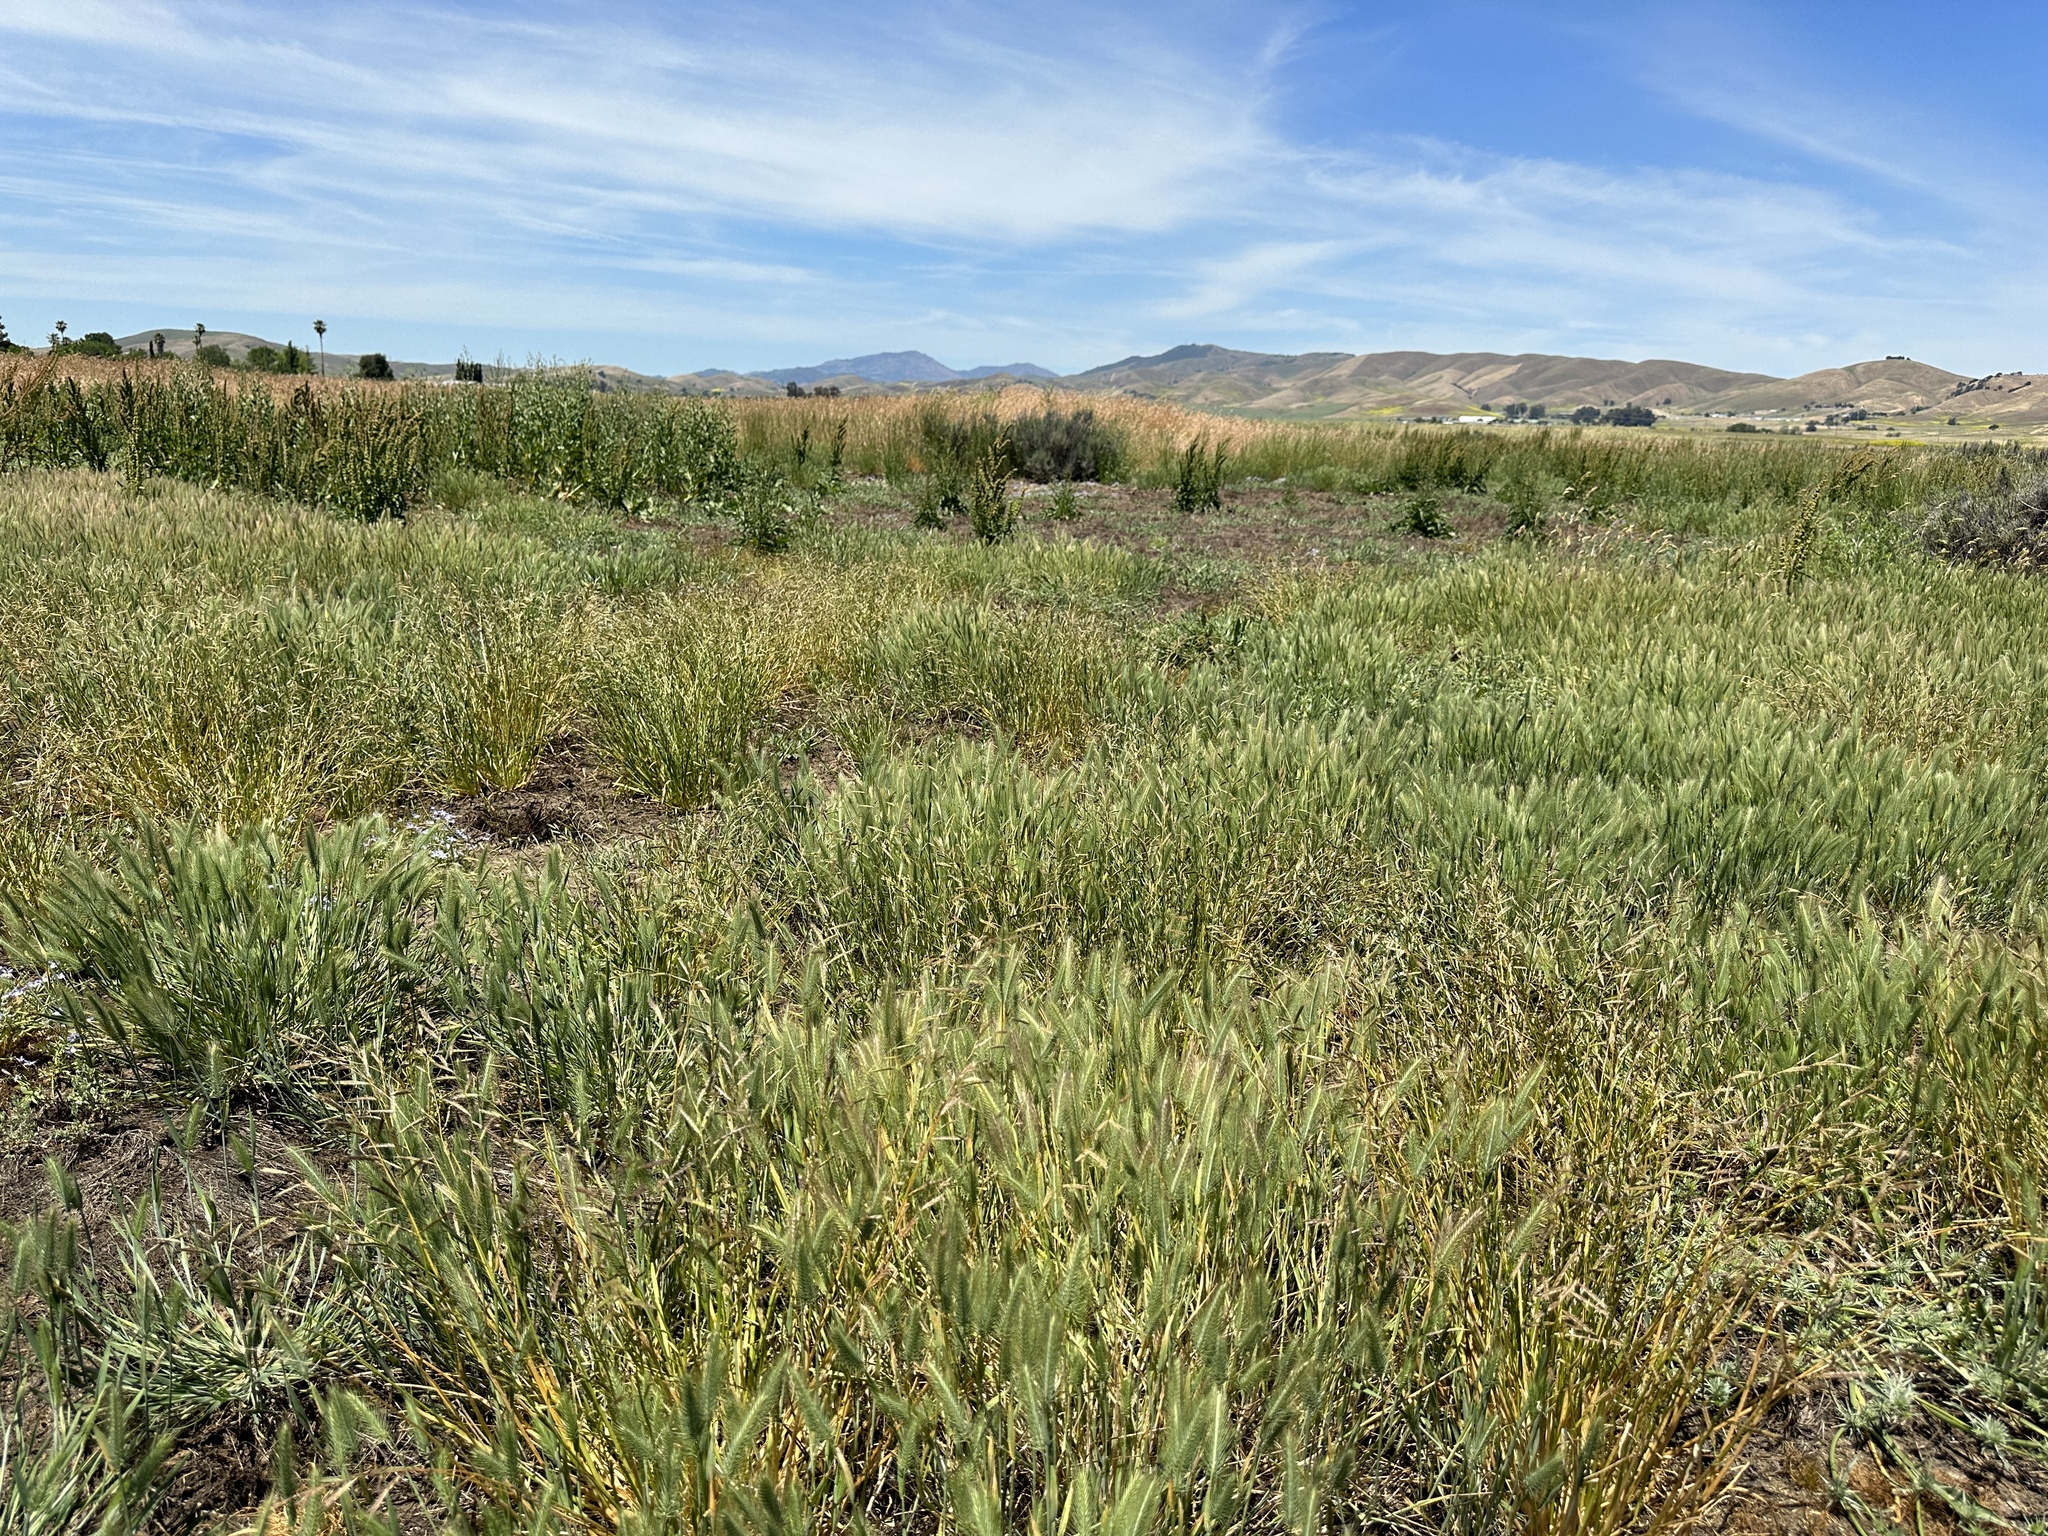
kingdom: Plantae
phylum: Tracheophyta
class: Liliopsida
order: Poales
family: Poaceae
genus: Pleuropogon
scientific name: Pleuropogon californicus
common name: California semaphore grass
